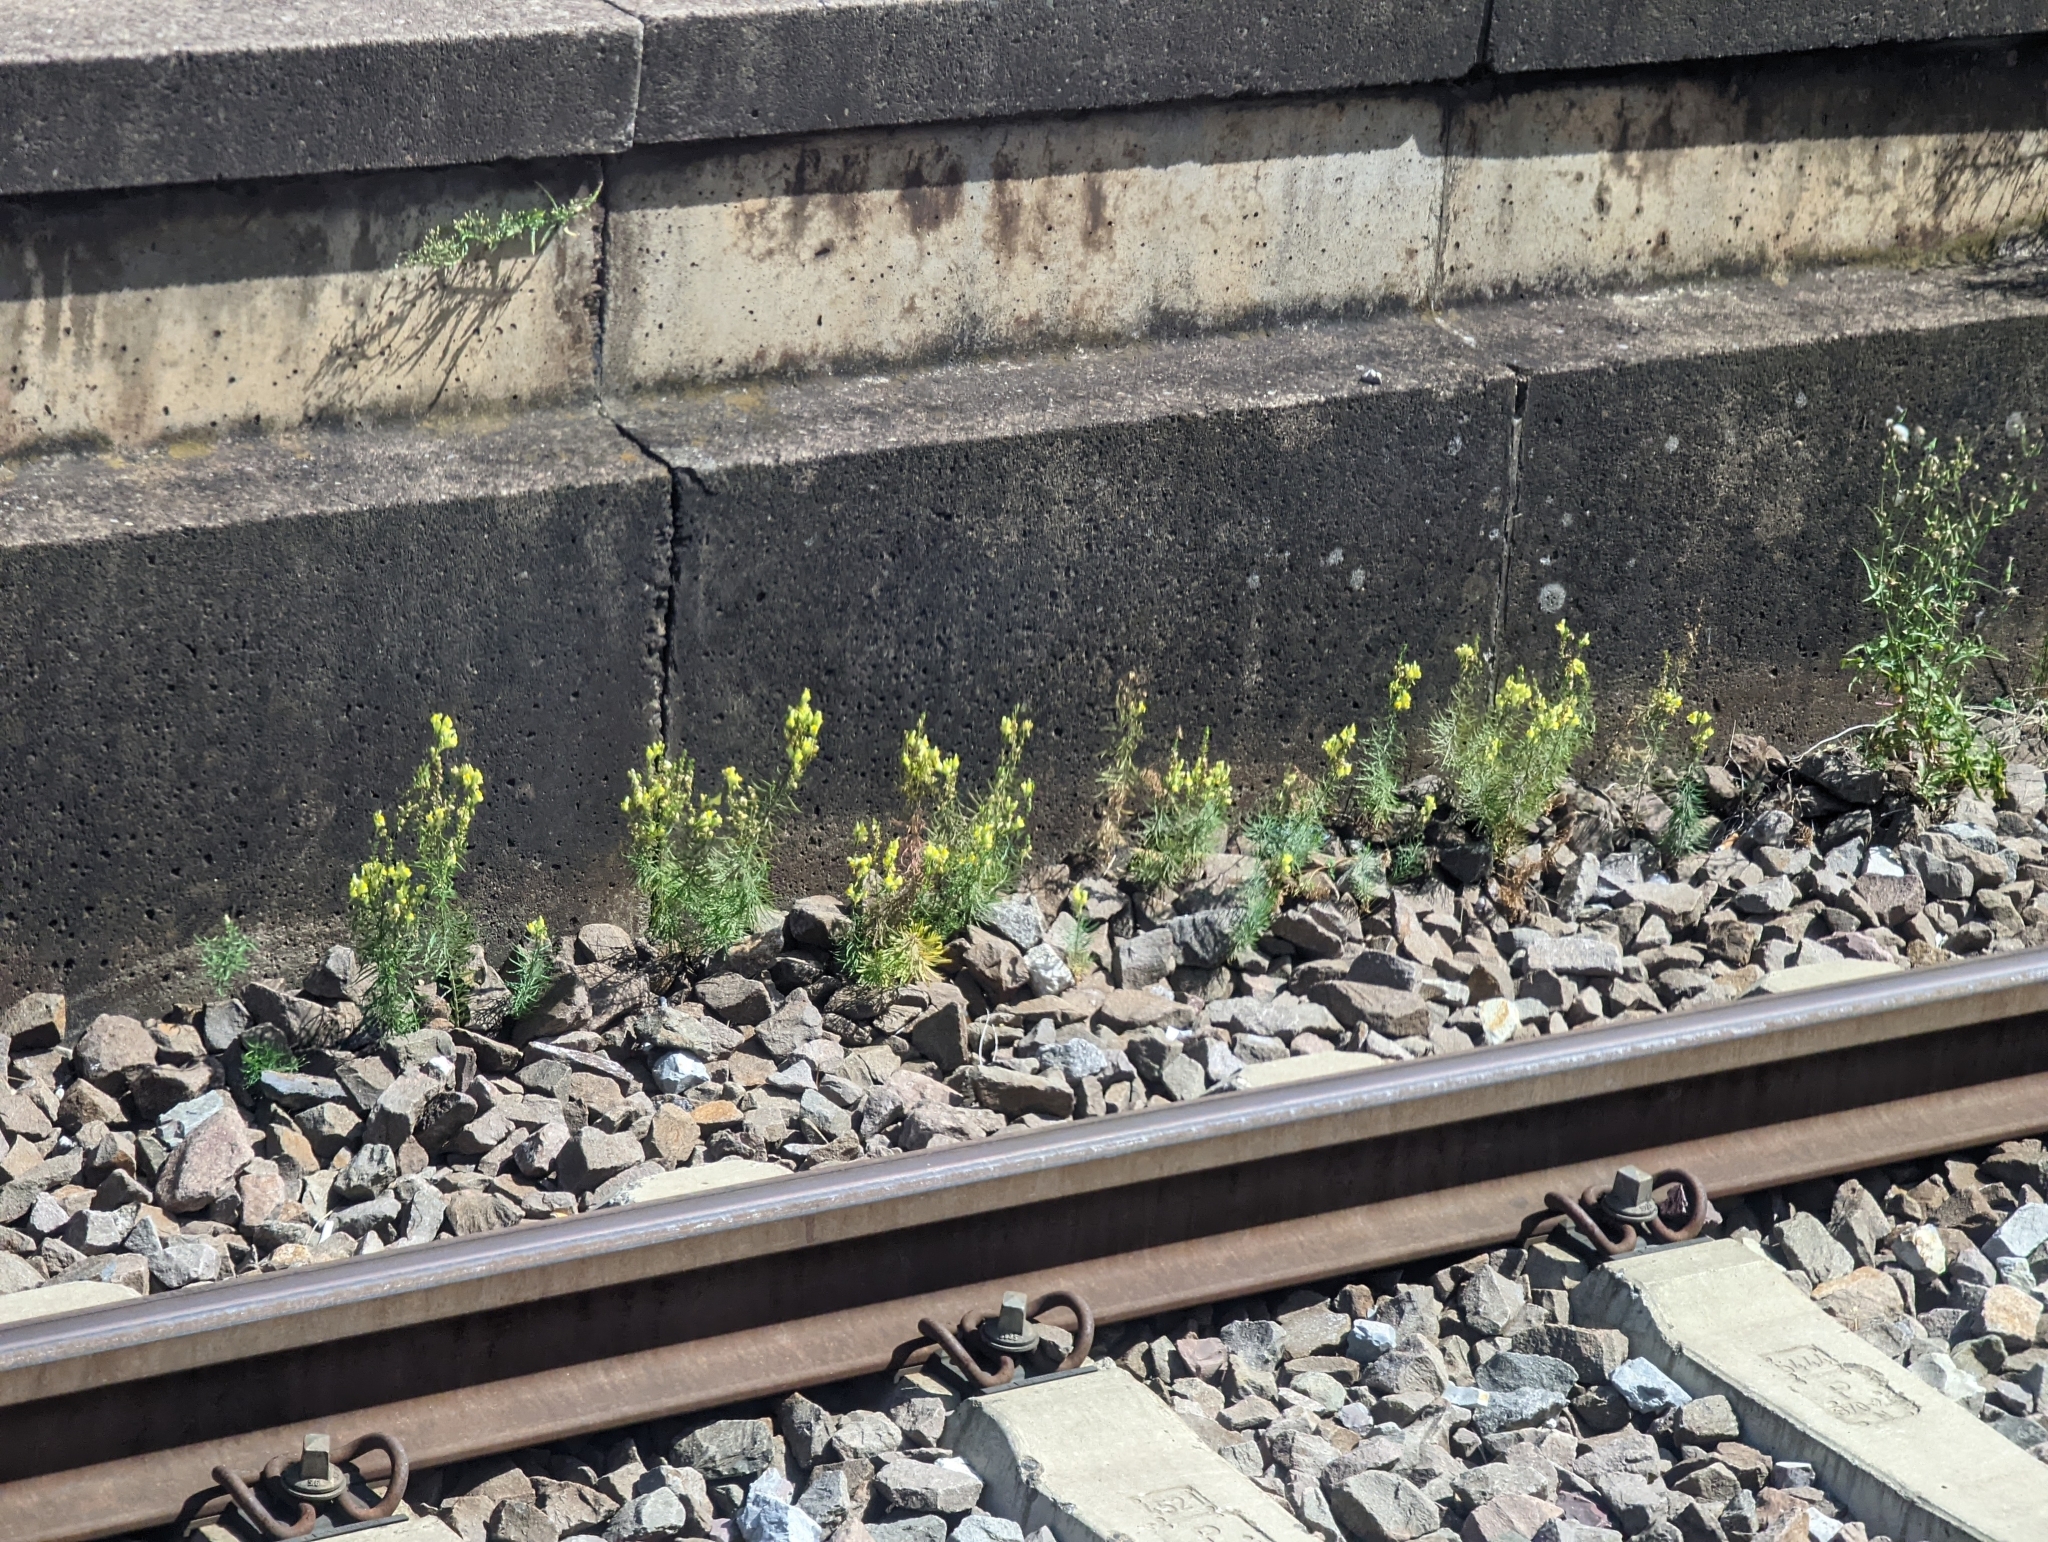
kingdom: Plantae
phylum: Tracheophyta
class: Magnoliopsida
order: Lamiales
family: Plantaginaceae
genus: Linaria
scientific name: Linaria vulgaris
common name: Butter and eggs
